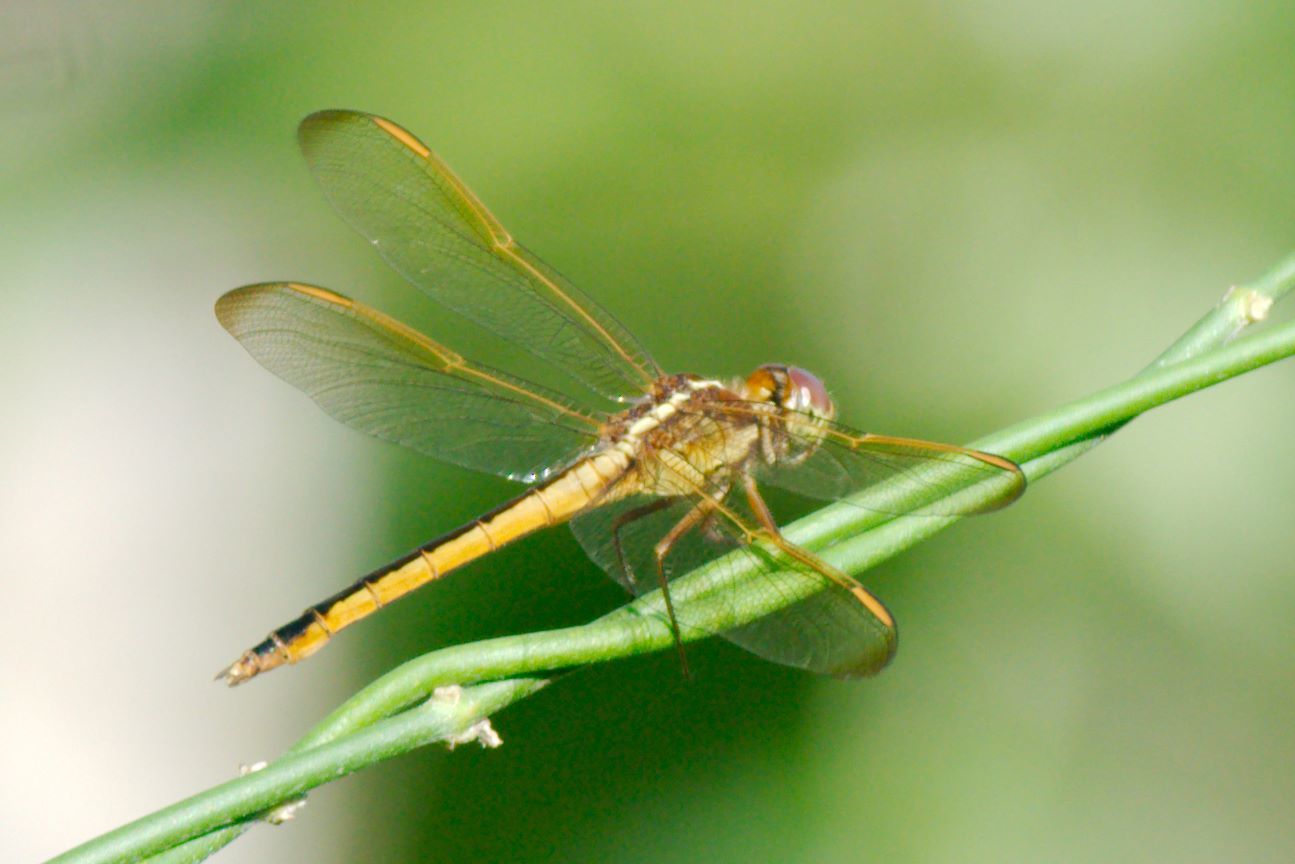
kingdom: Animalia
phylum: Arthropoda
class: Insecta
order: Odonata
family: Libellulidae
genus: Libellula
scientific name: Libellula needhami
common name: Needham's skimmer
